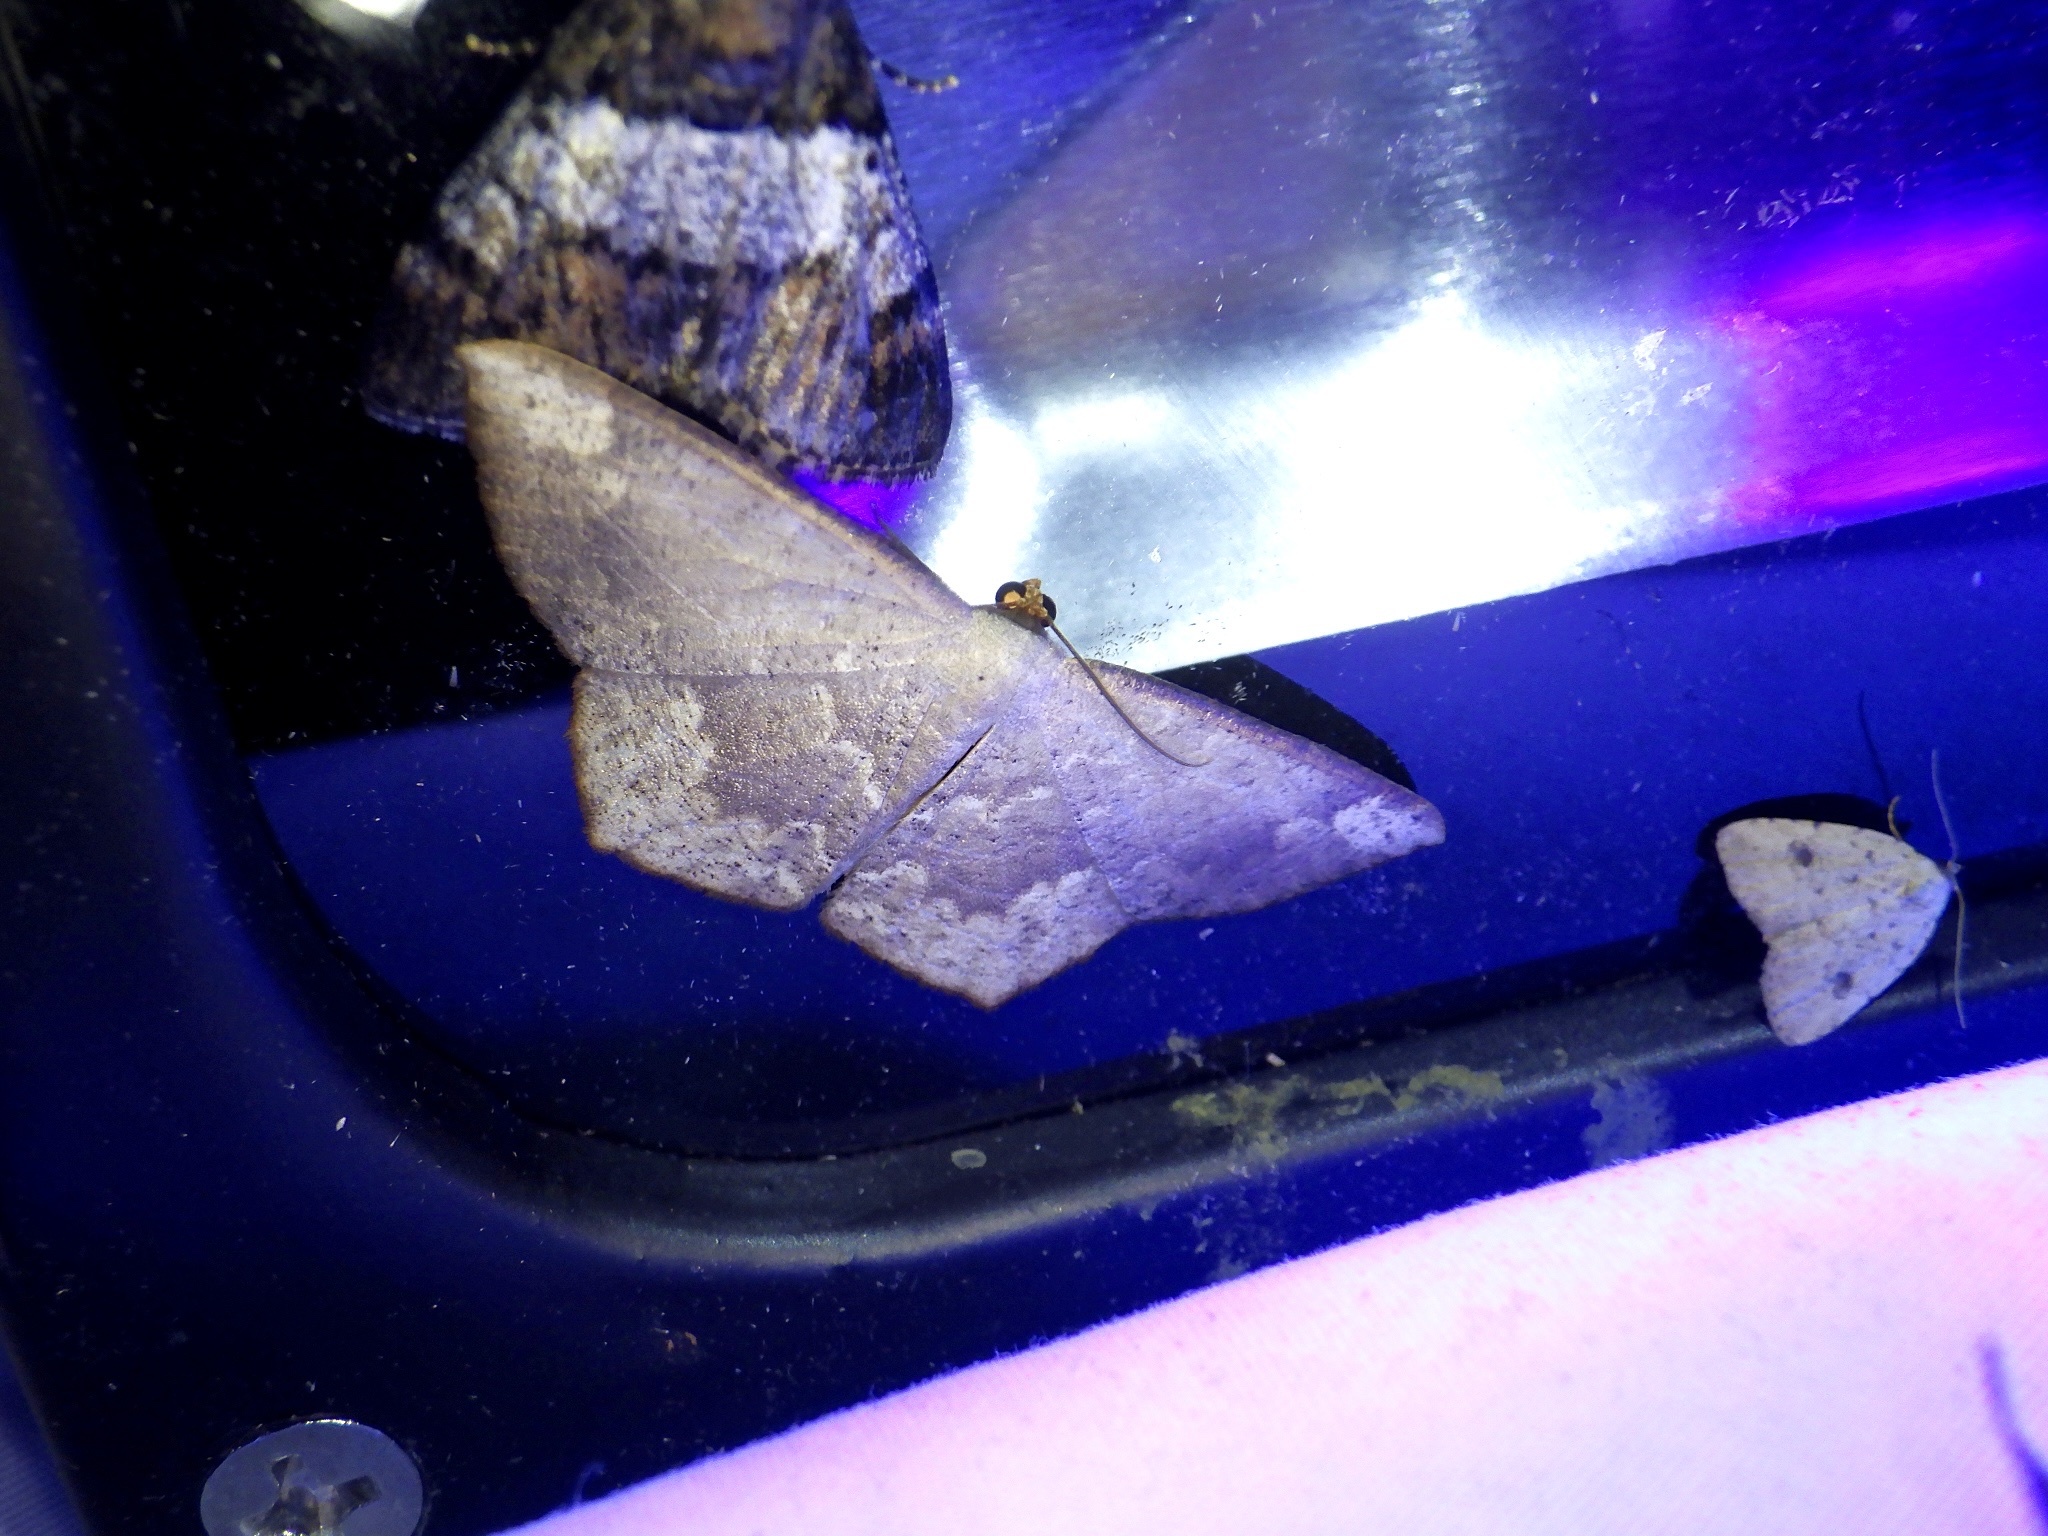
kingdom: Animalia
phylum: Arthropoda
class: Insecta
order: Lepidoptera
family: Geometridae
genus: Peratostega
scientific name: Peratostega deletaria
